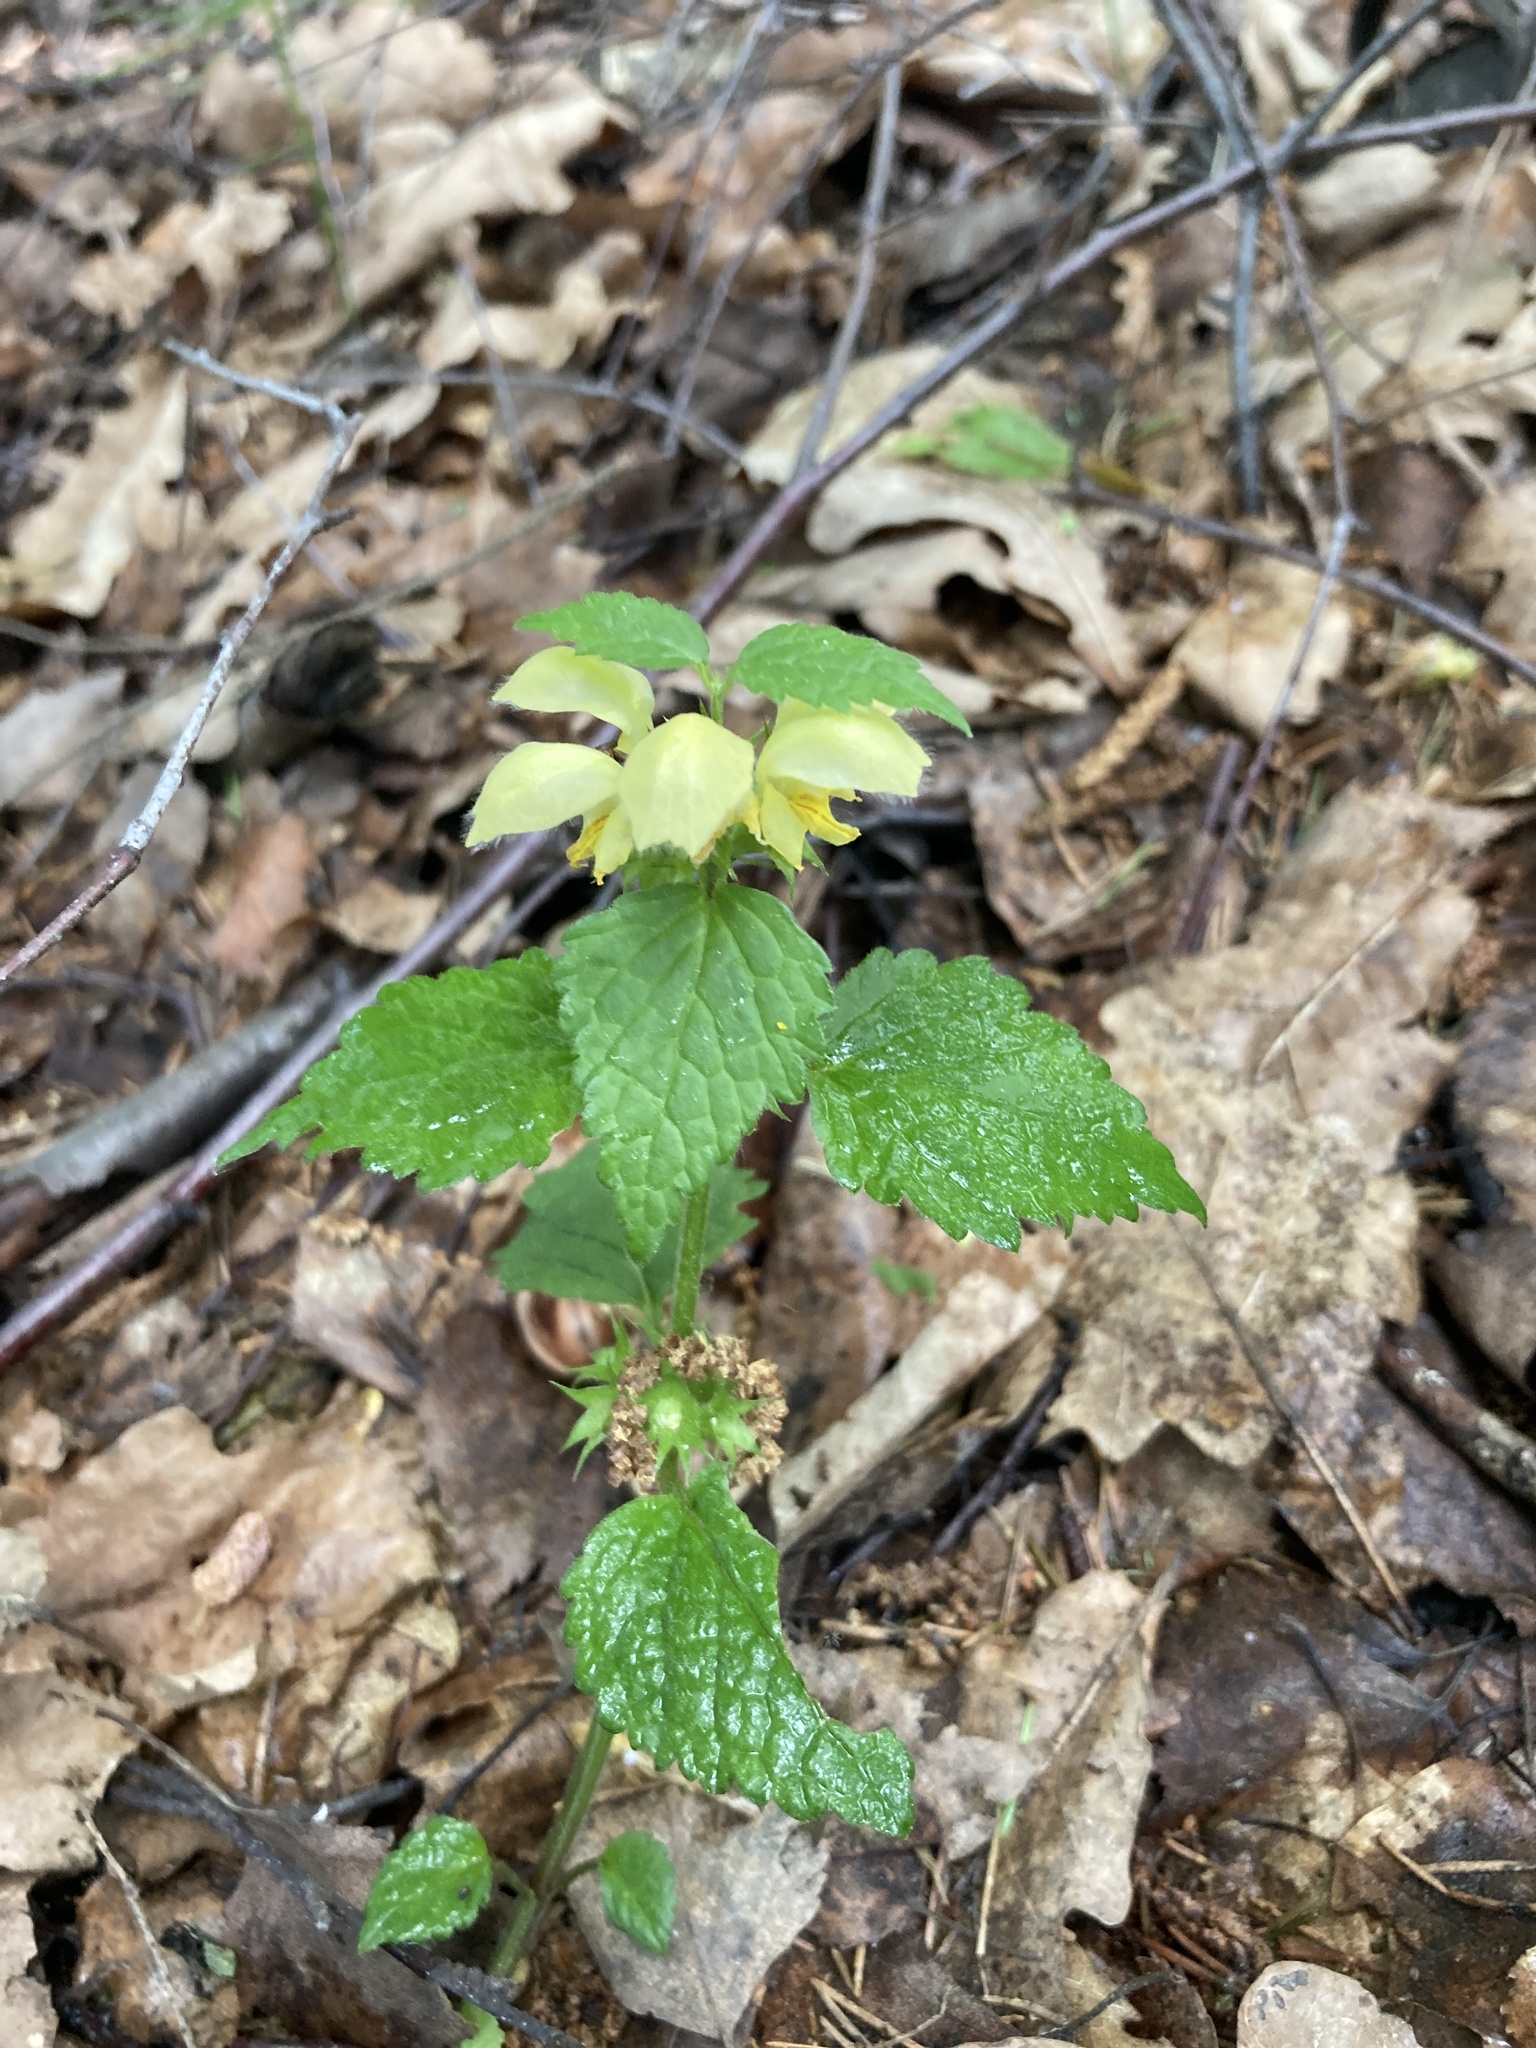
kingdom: Plantae
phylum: Tracheophyta
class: Magnoliopsida
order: Lamiales
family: Lamiaceae
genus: Lamium
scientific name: Lamium galeobdolon
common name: Yellow archangel
